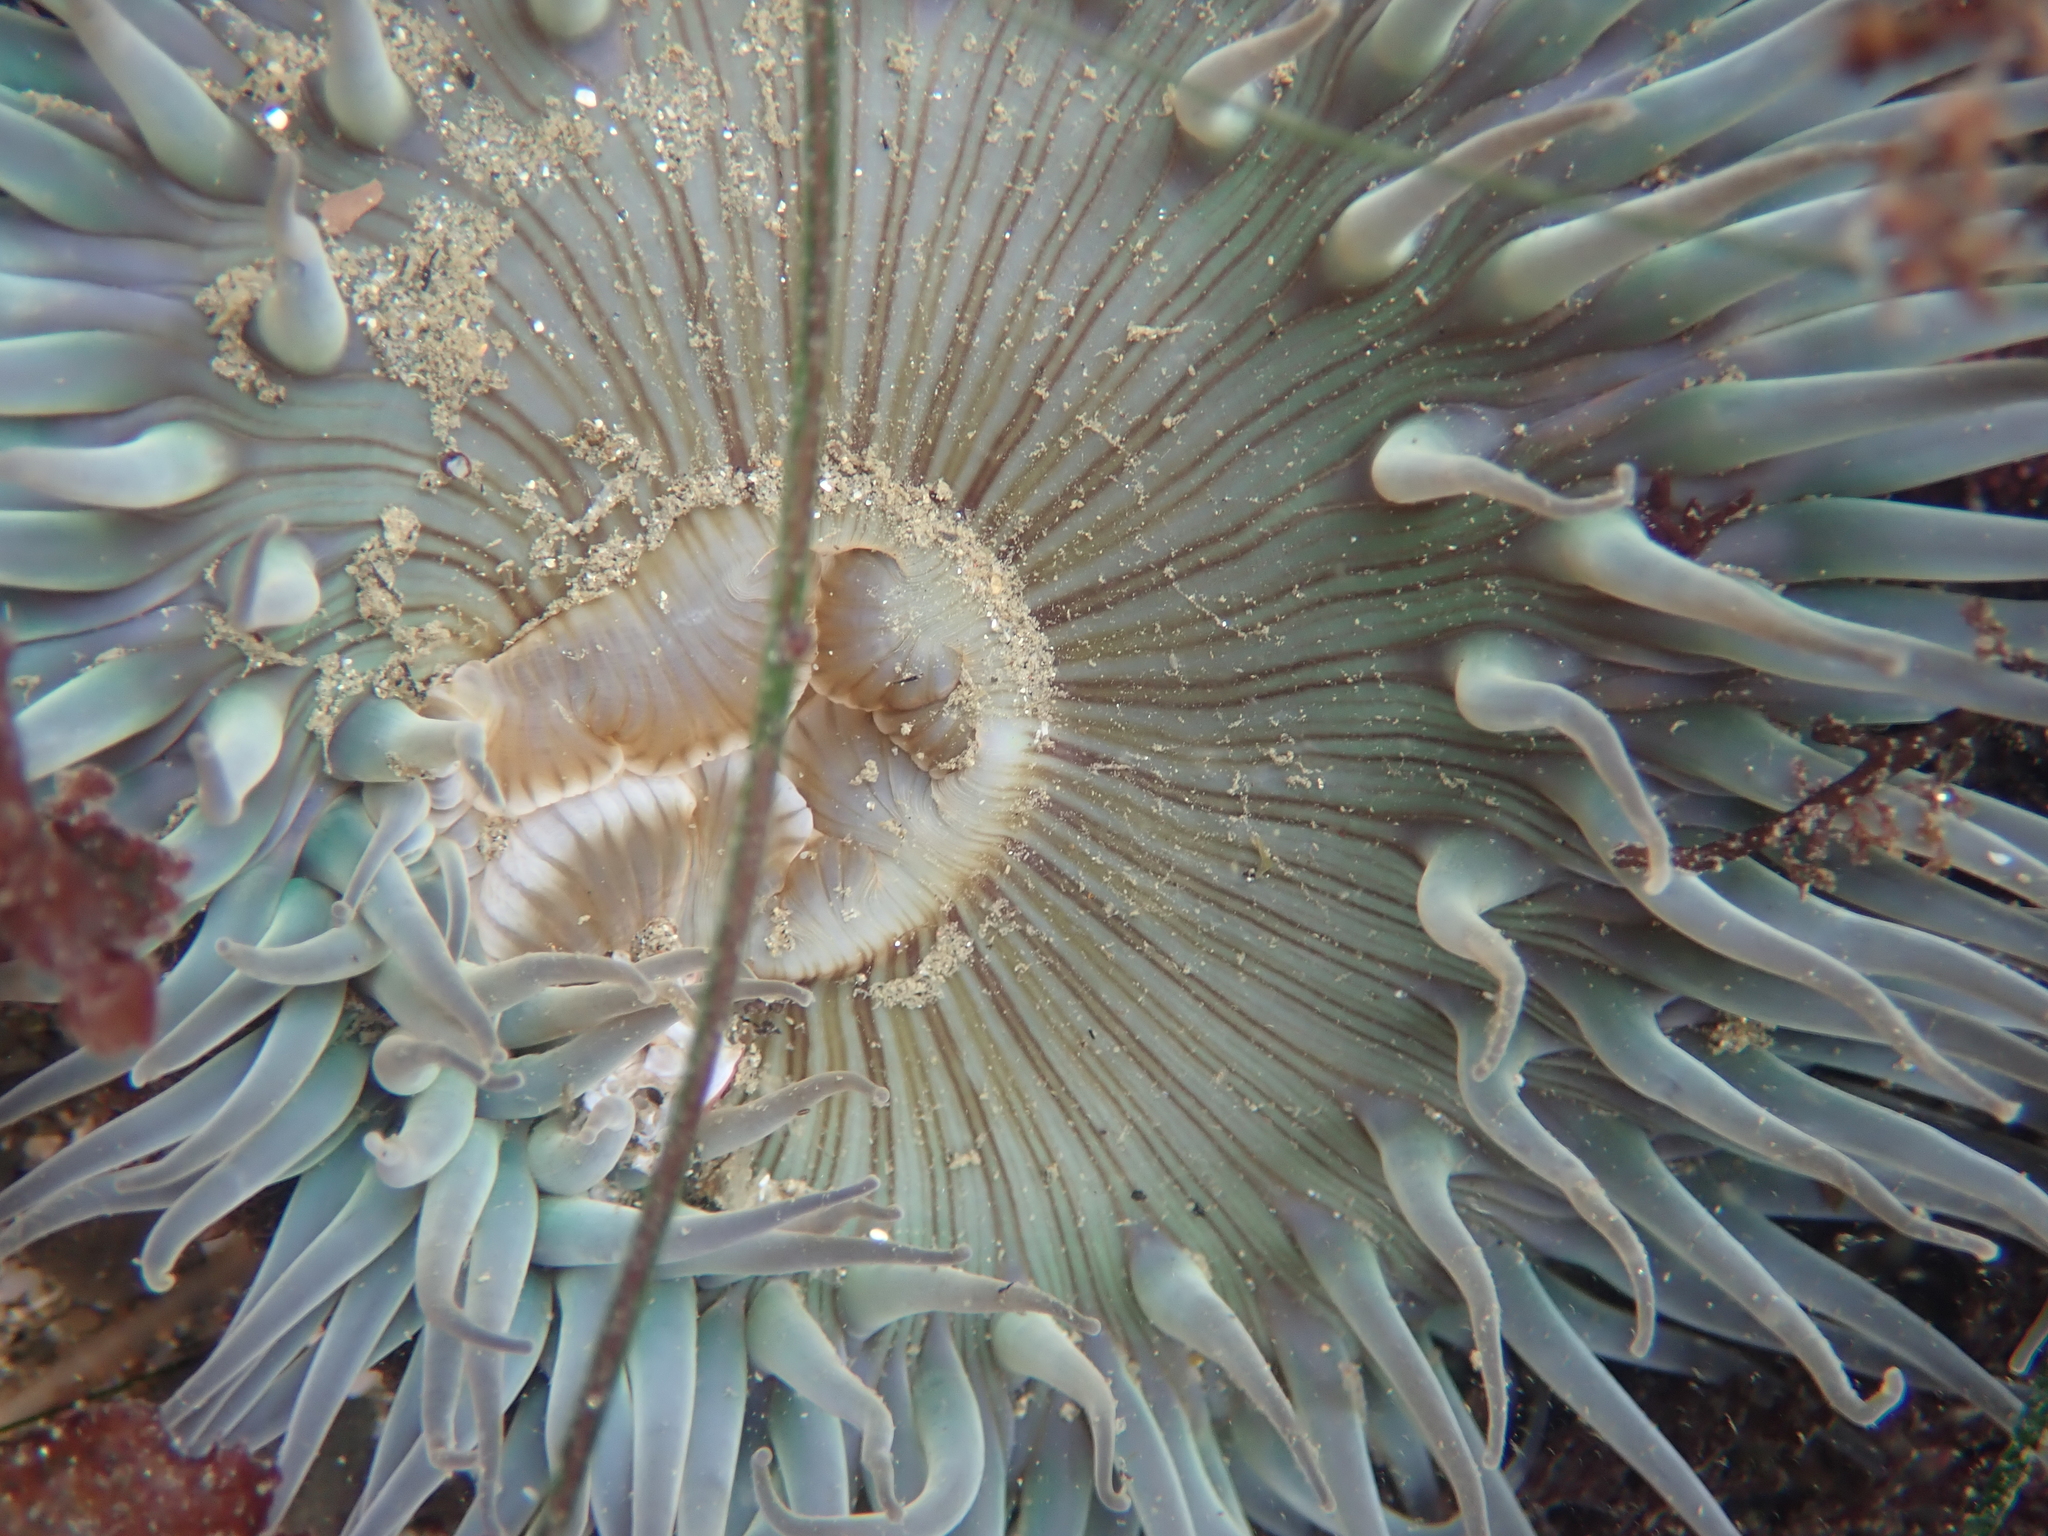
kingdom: Animalia
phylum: Cnidaria
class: Anthozoa
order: Actiniaria
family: Actiniidae
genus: Anthopleura
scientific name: Anthopleura sola
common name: Sun anemone
